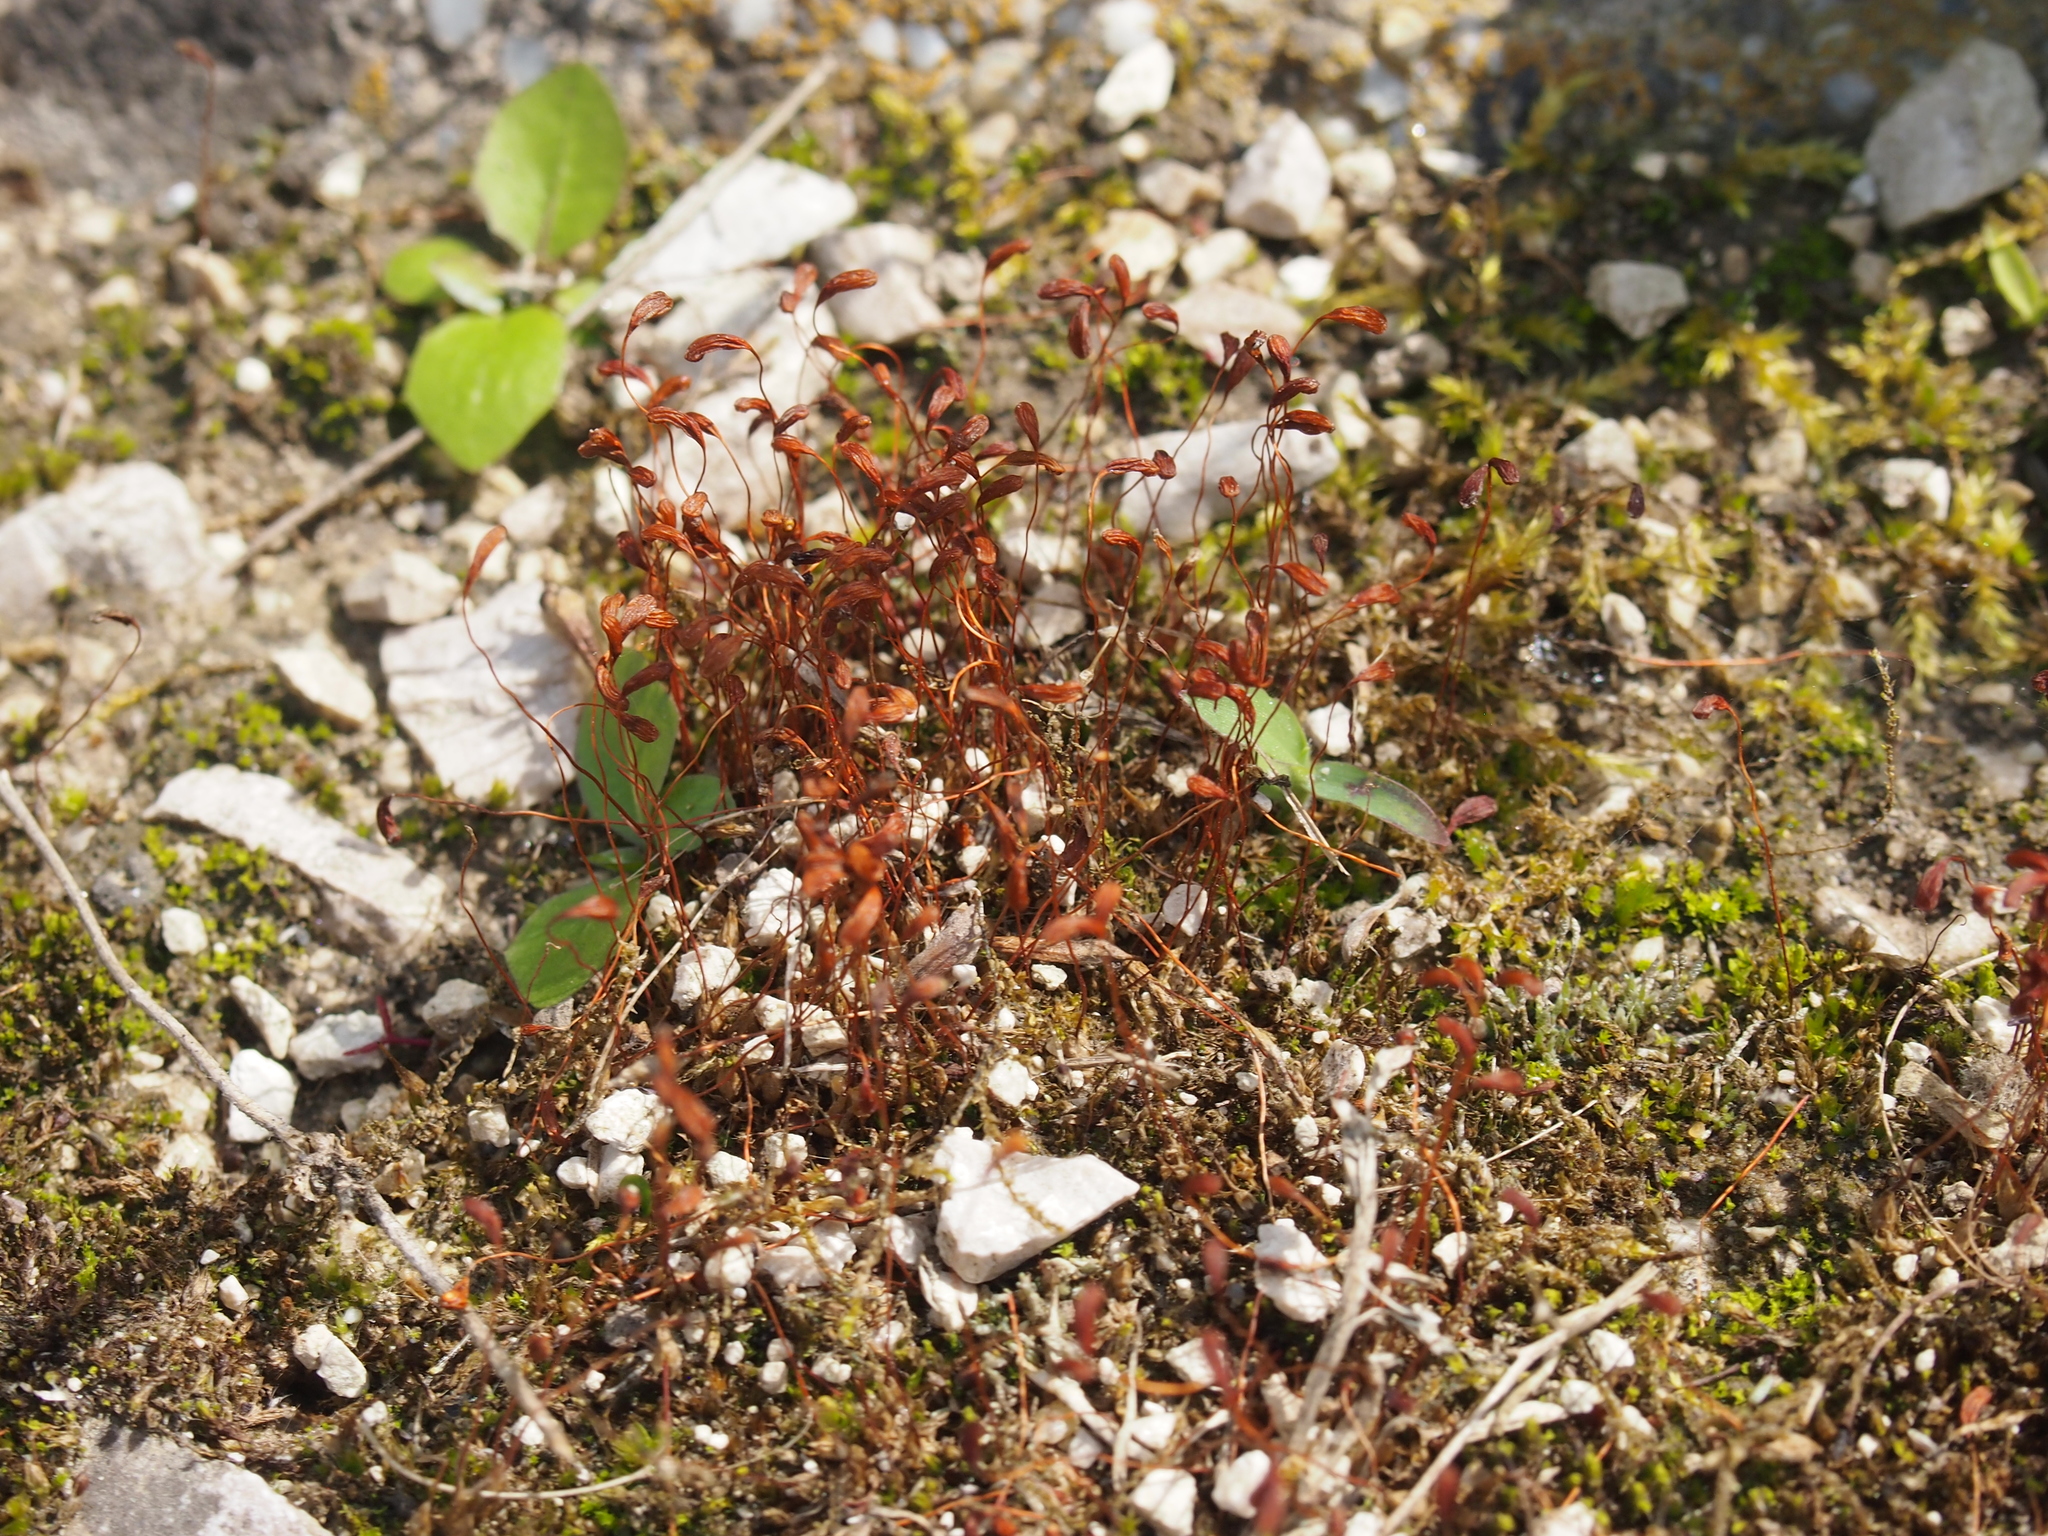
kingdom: Plantae
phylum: Bryophyta
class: Bryopsida
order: Funariales
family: Funariaceae
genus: Funaria
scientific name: Funaria hygrometrica
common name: Common cord moss
